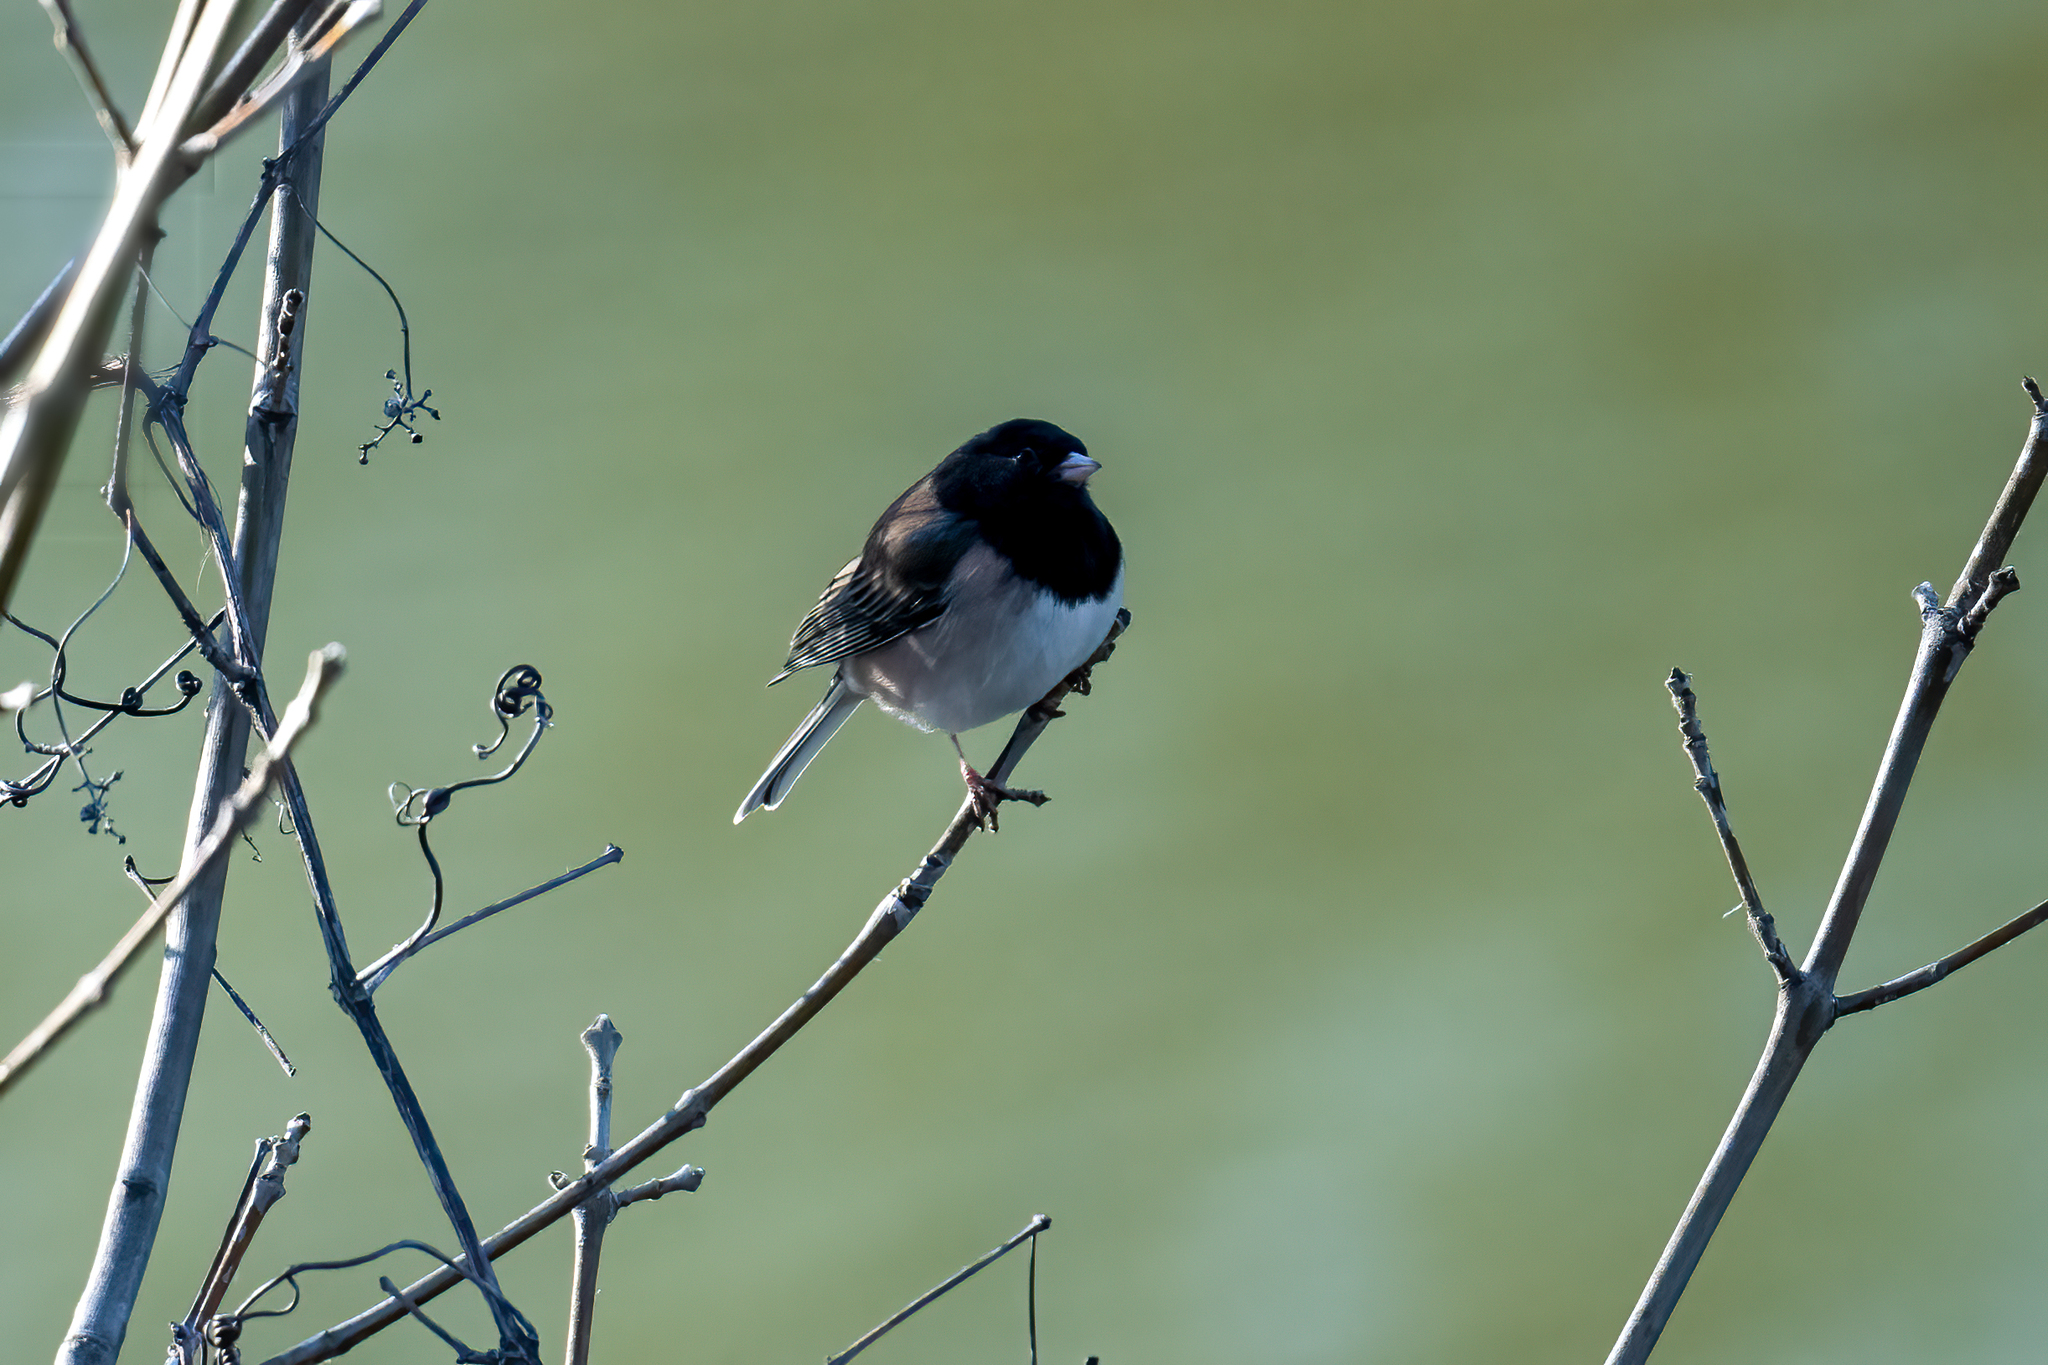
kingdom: Animalia
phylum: Chordata
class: Aves
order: Passeriformes
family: Passerellidae
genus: Junco
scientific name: Junco hyemalis
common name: Dark-eyed junco
